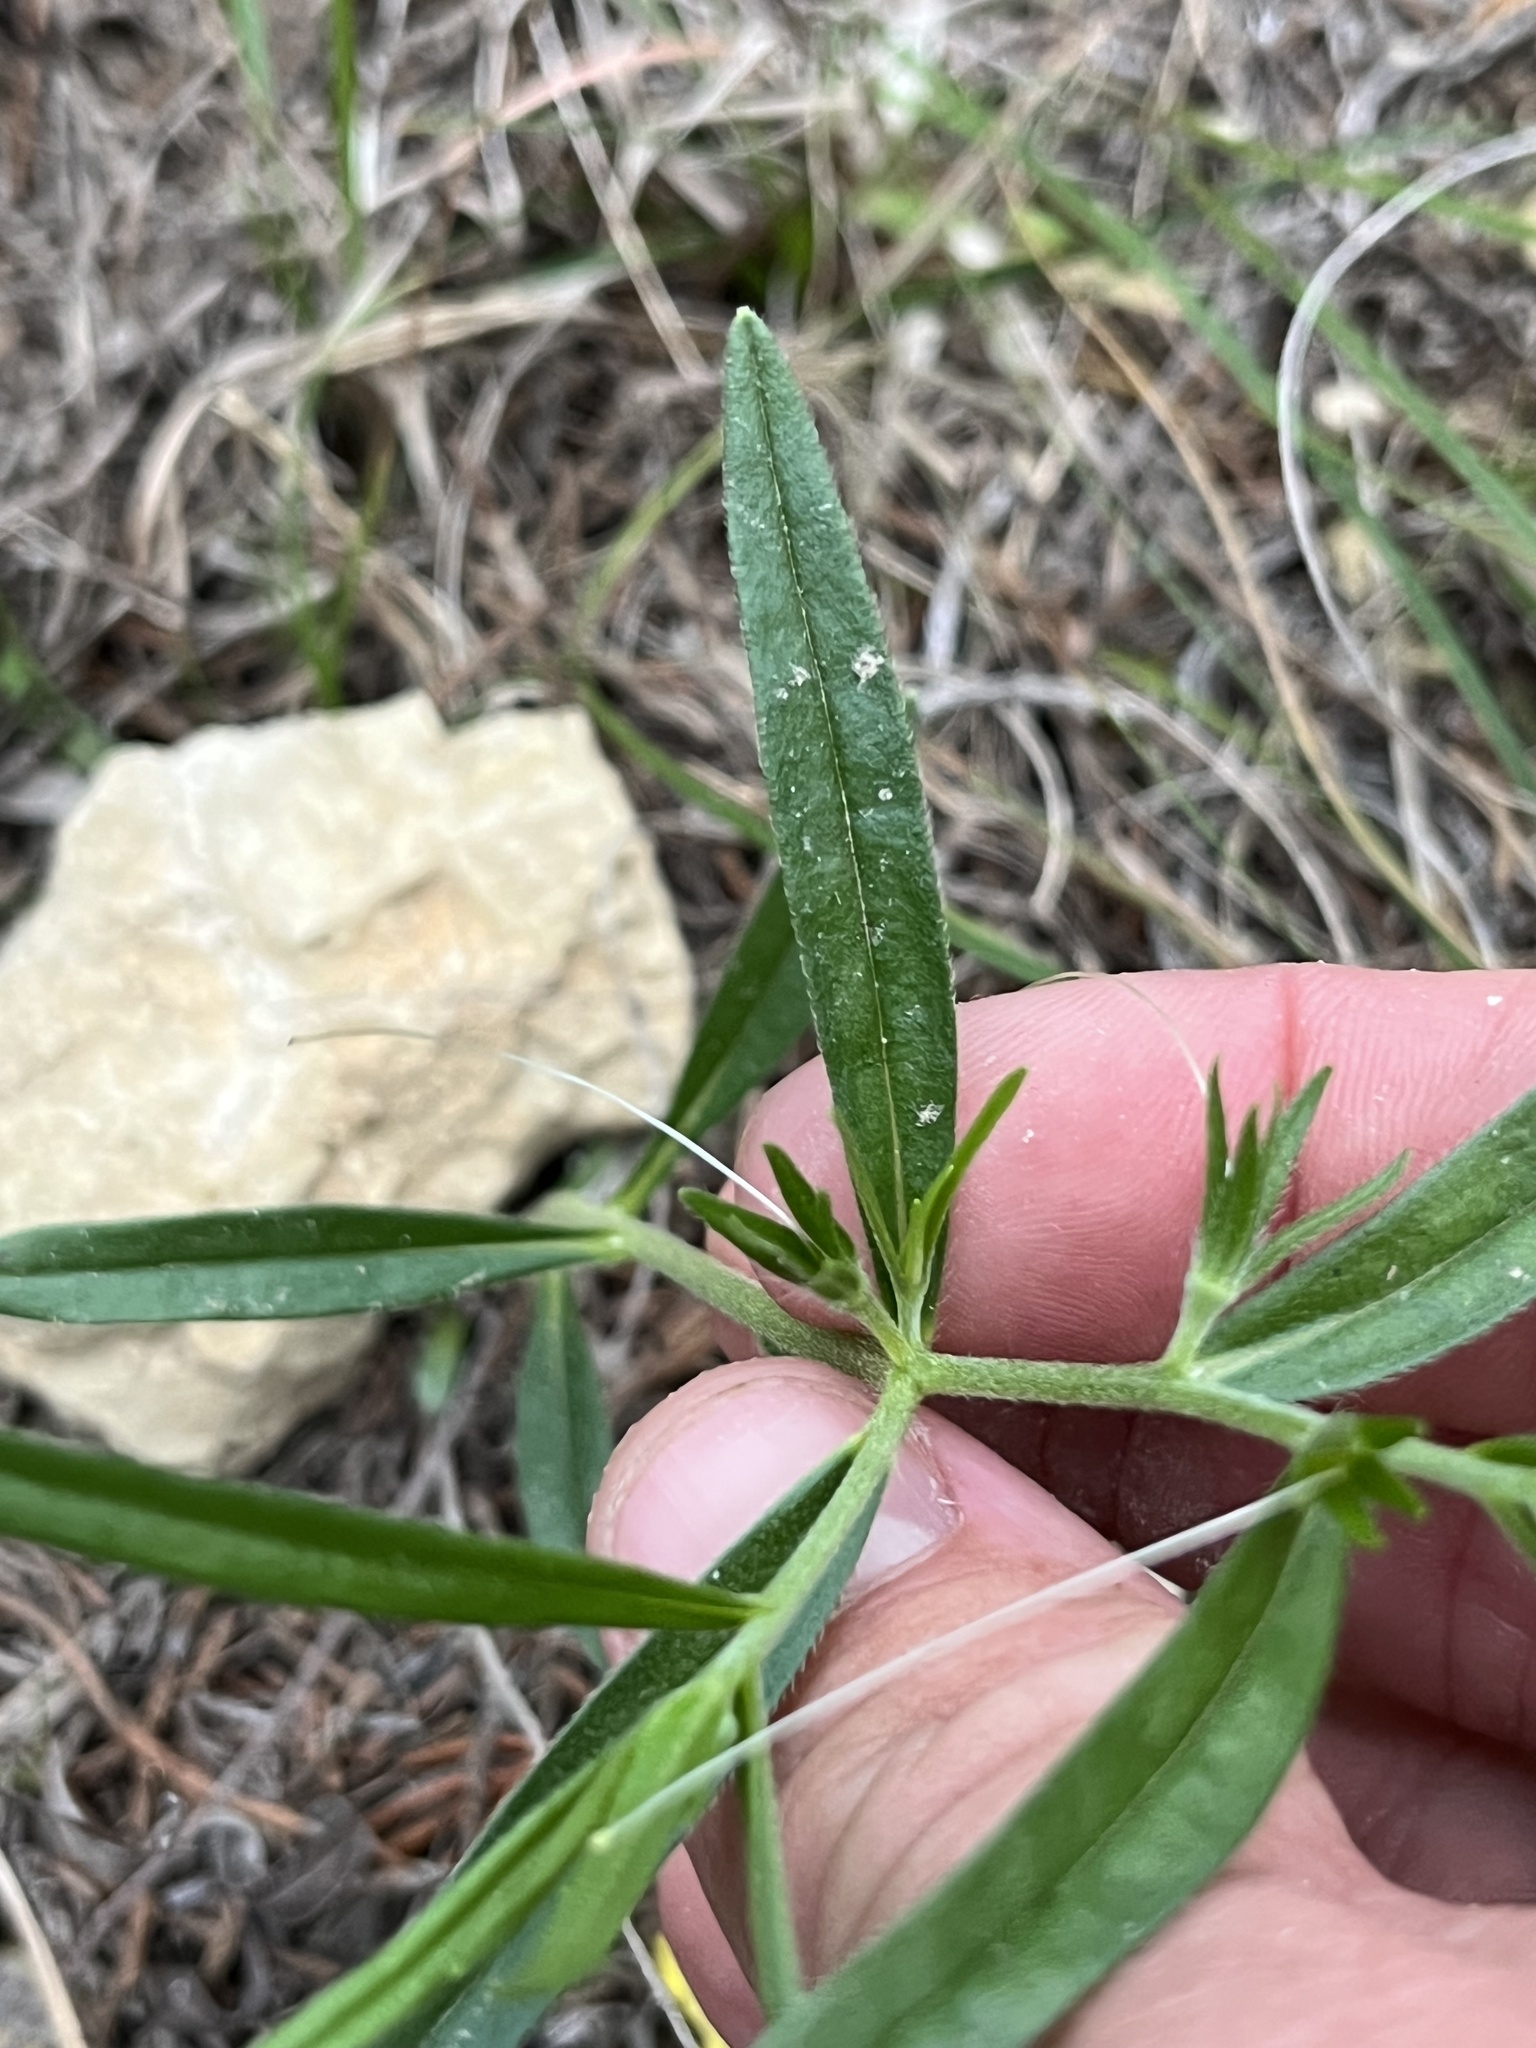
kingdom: Plantae
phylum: Tracheophyta
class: Magnoliopsida
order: Boraginales
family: Boraginaceae
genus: Lithospermum
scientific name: Lithospermum incisum
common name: Fringed gromwell
